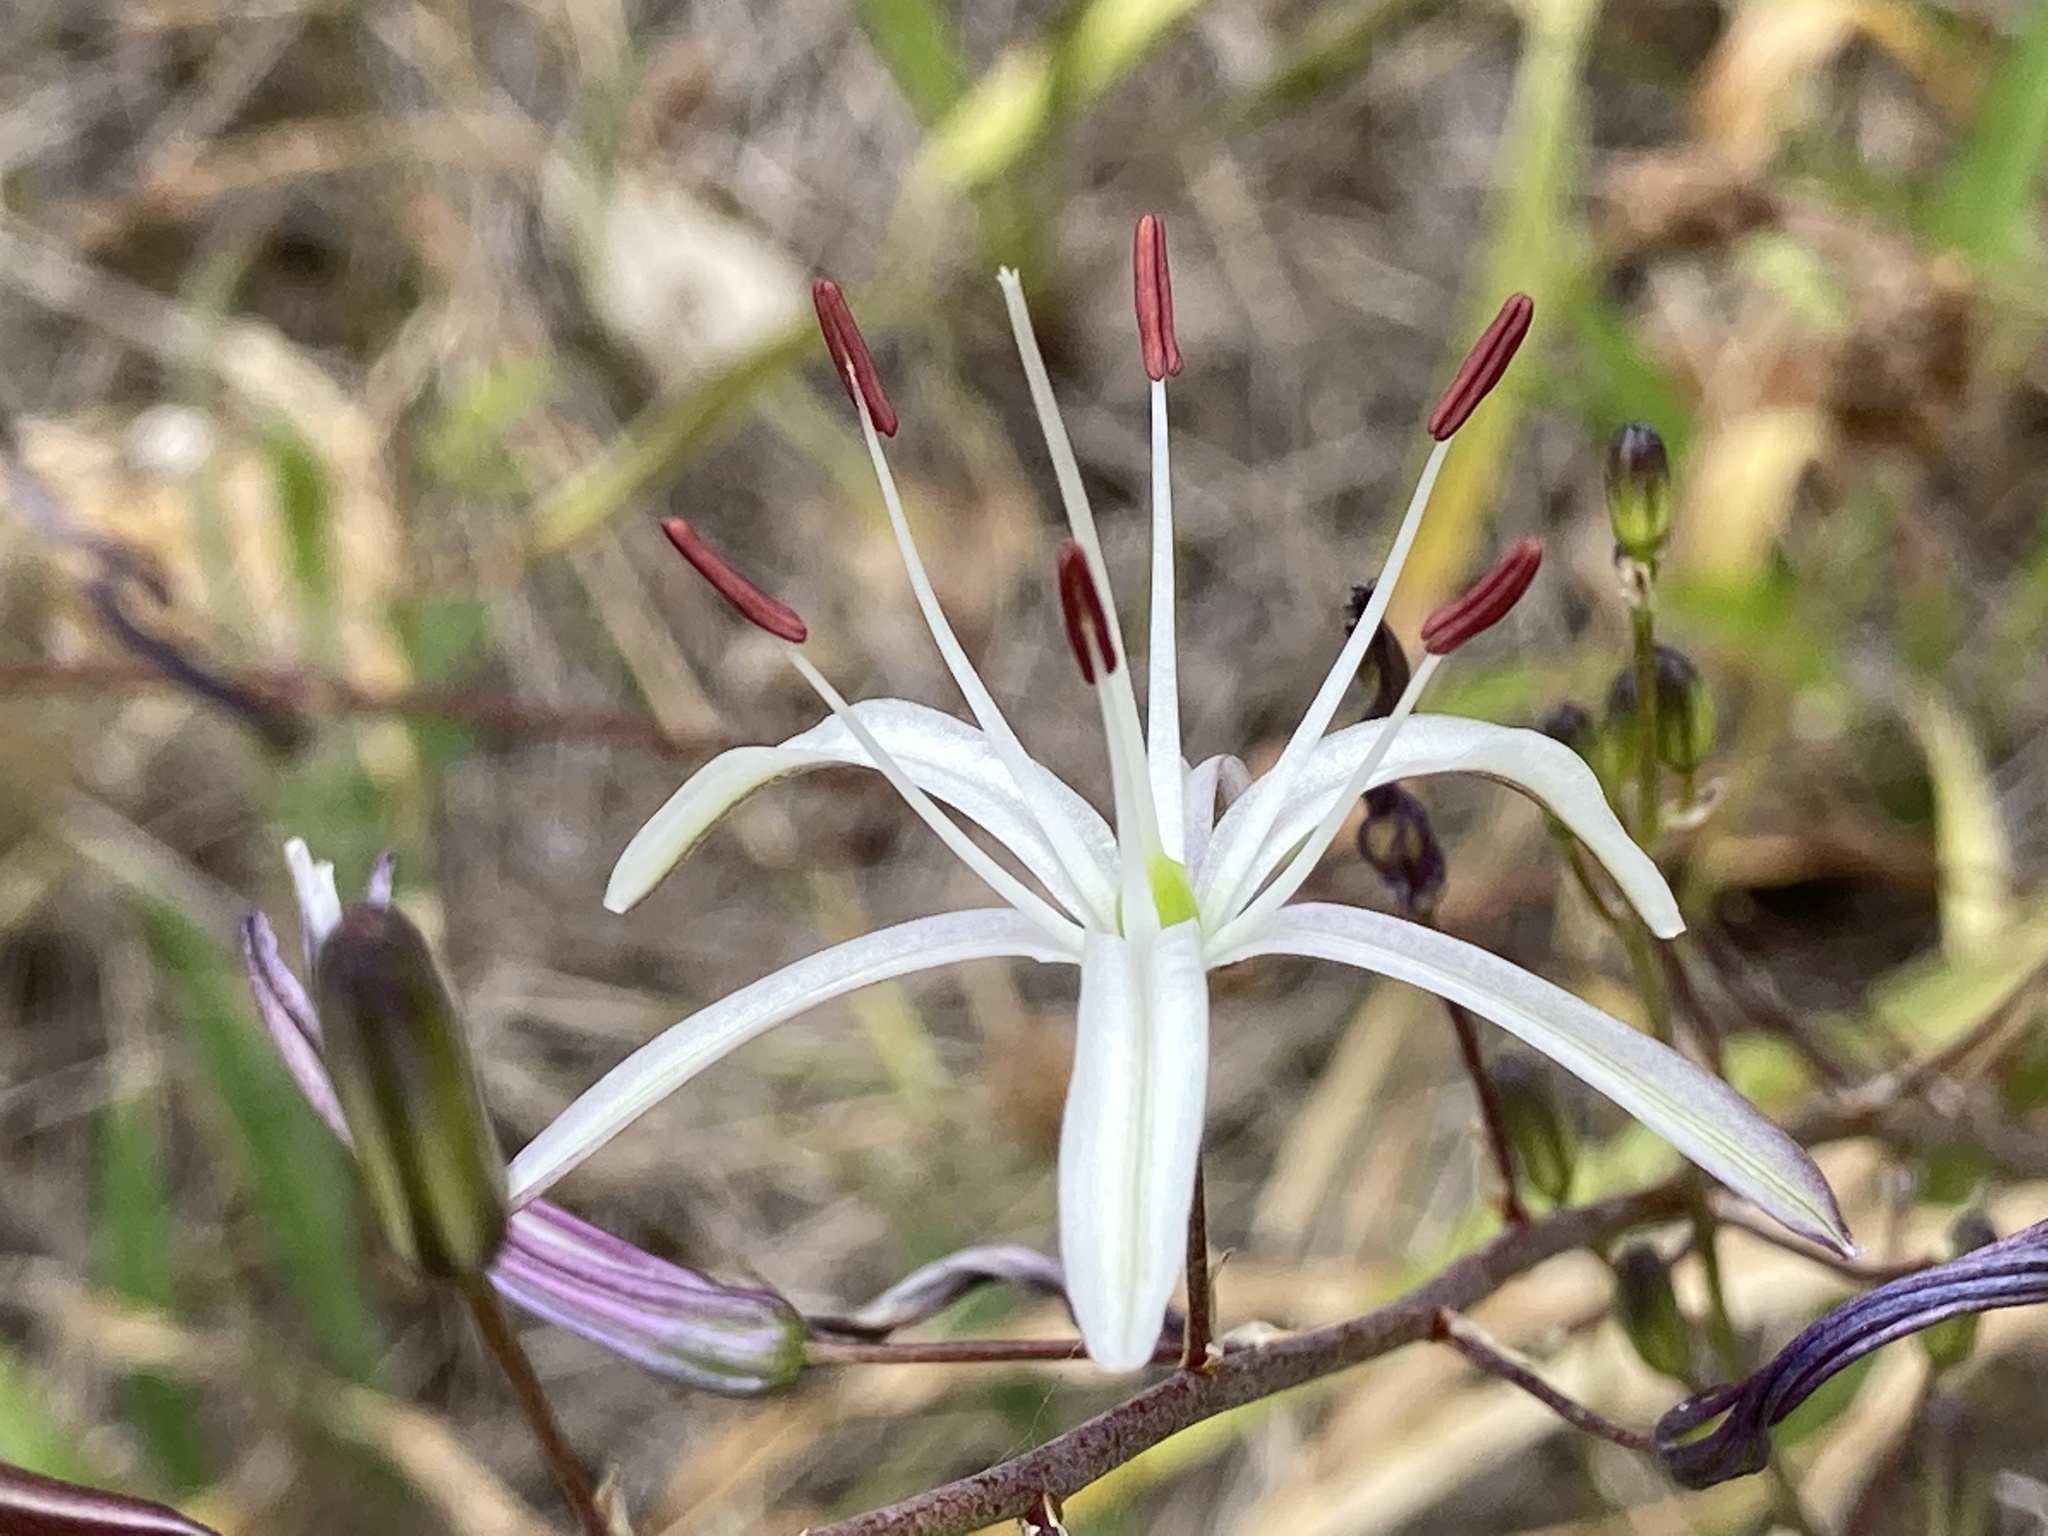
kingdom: Plantae
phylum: Tracheophyta
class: Liliopsida
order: Asparagales
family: Asparagaceae
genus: Chlorogalum
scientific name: Chlorogalum pomeridianum
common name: Amole
